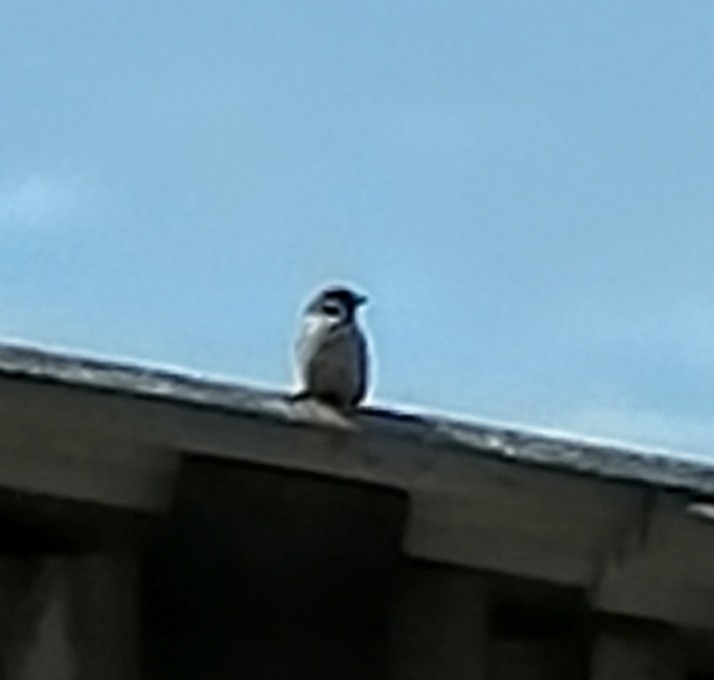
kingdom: Animalia
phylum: Chordata
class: Aves
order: Passeriformes
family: Passeridae
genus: Passer
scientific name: Passer montanus
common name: Eurasian tree sparrow
